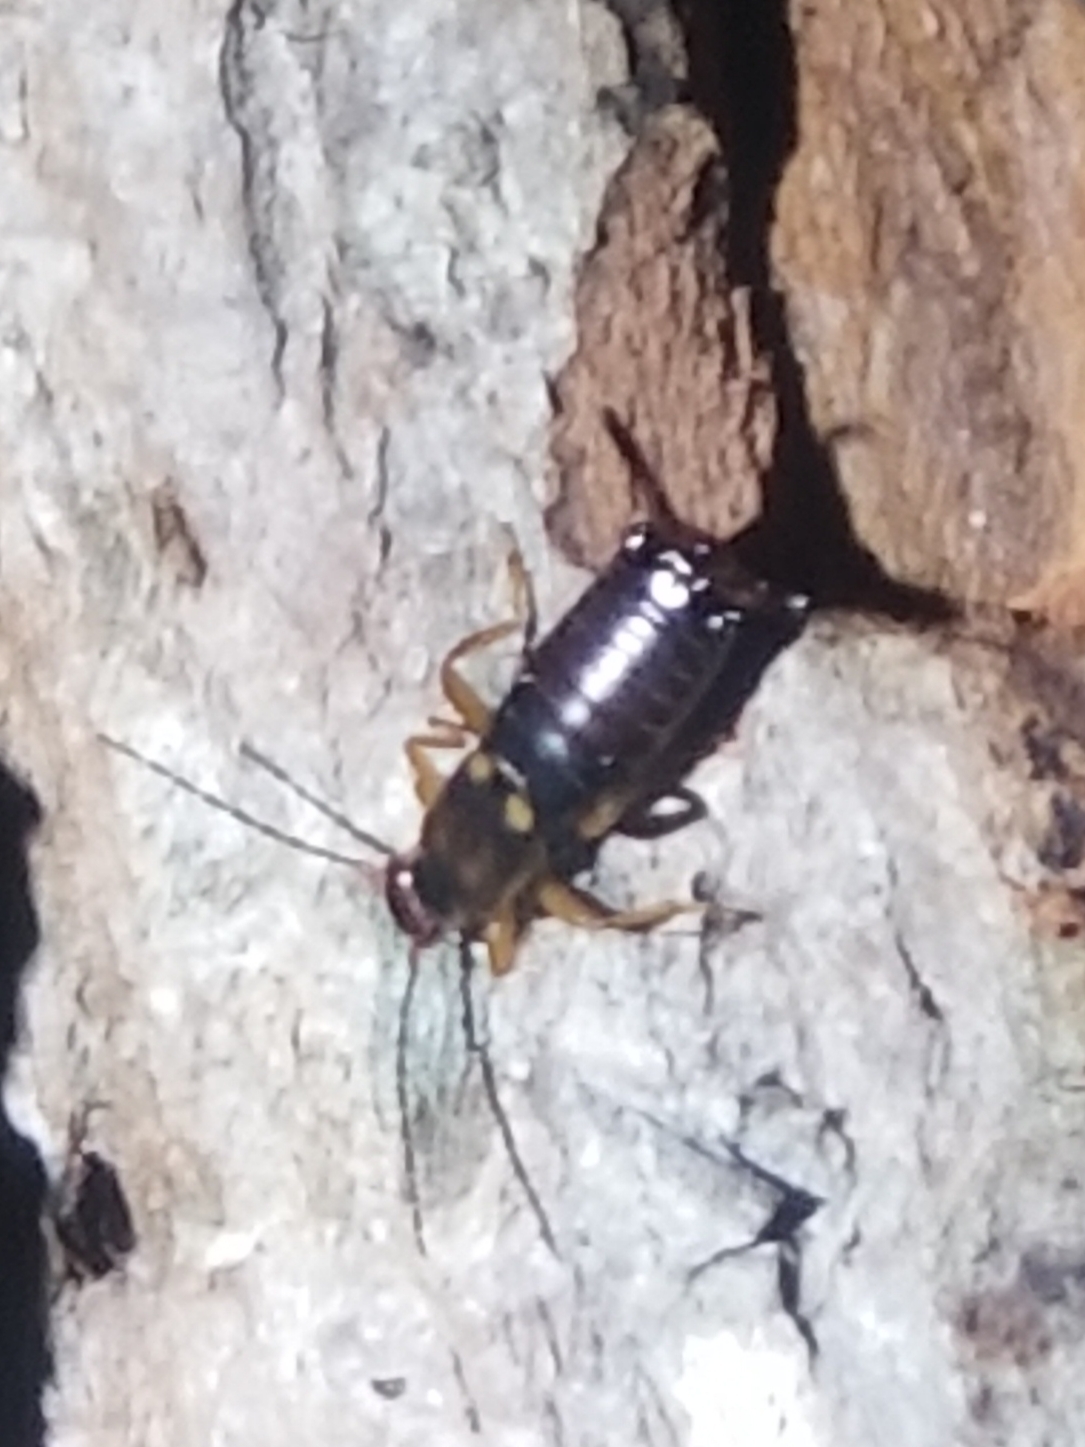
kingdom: Animalia
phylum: Arthropoda
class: Insecta
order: Dermaptera
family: Forficulidae
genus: Forficula
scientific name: Forficula
